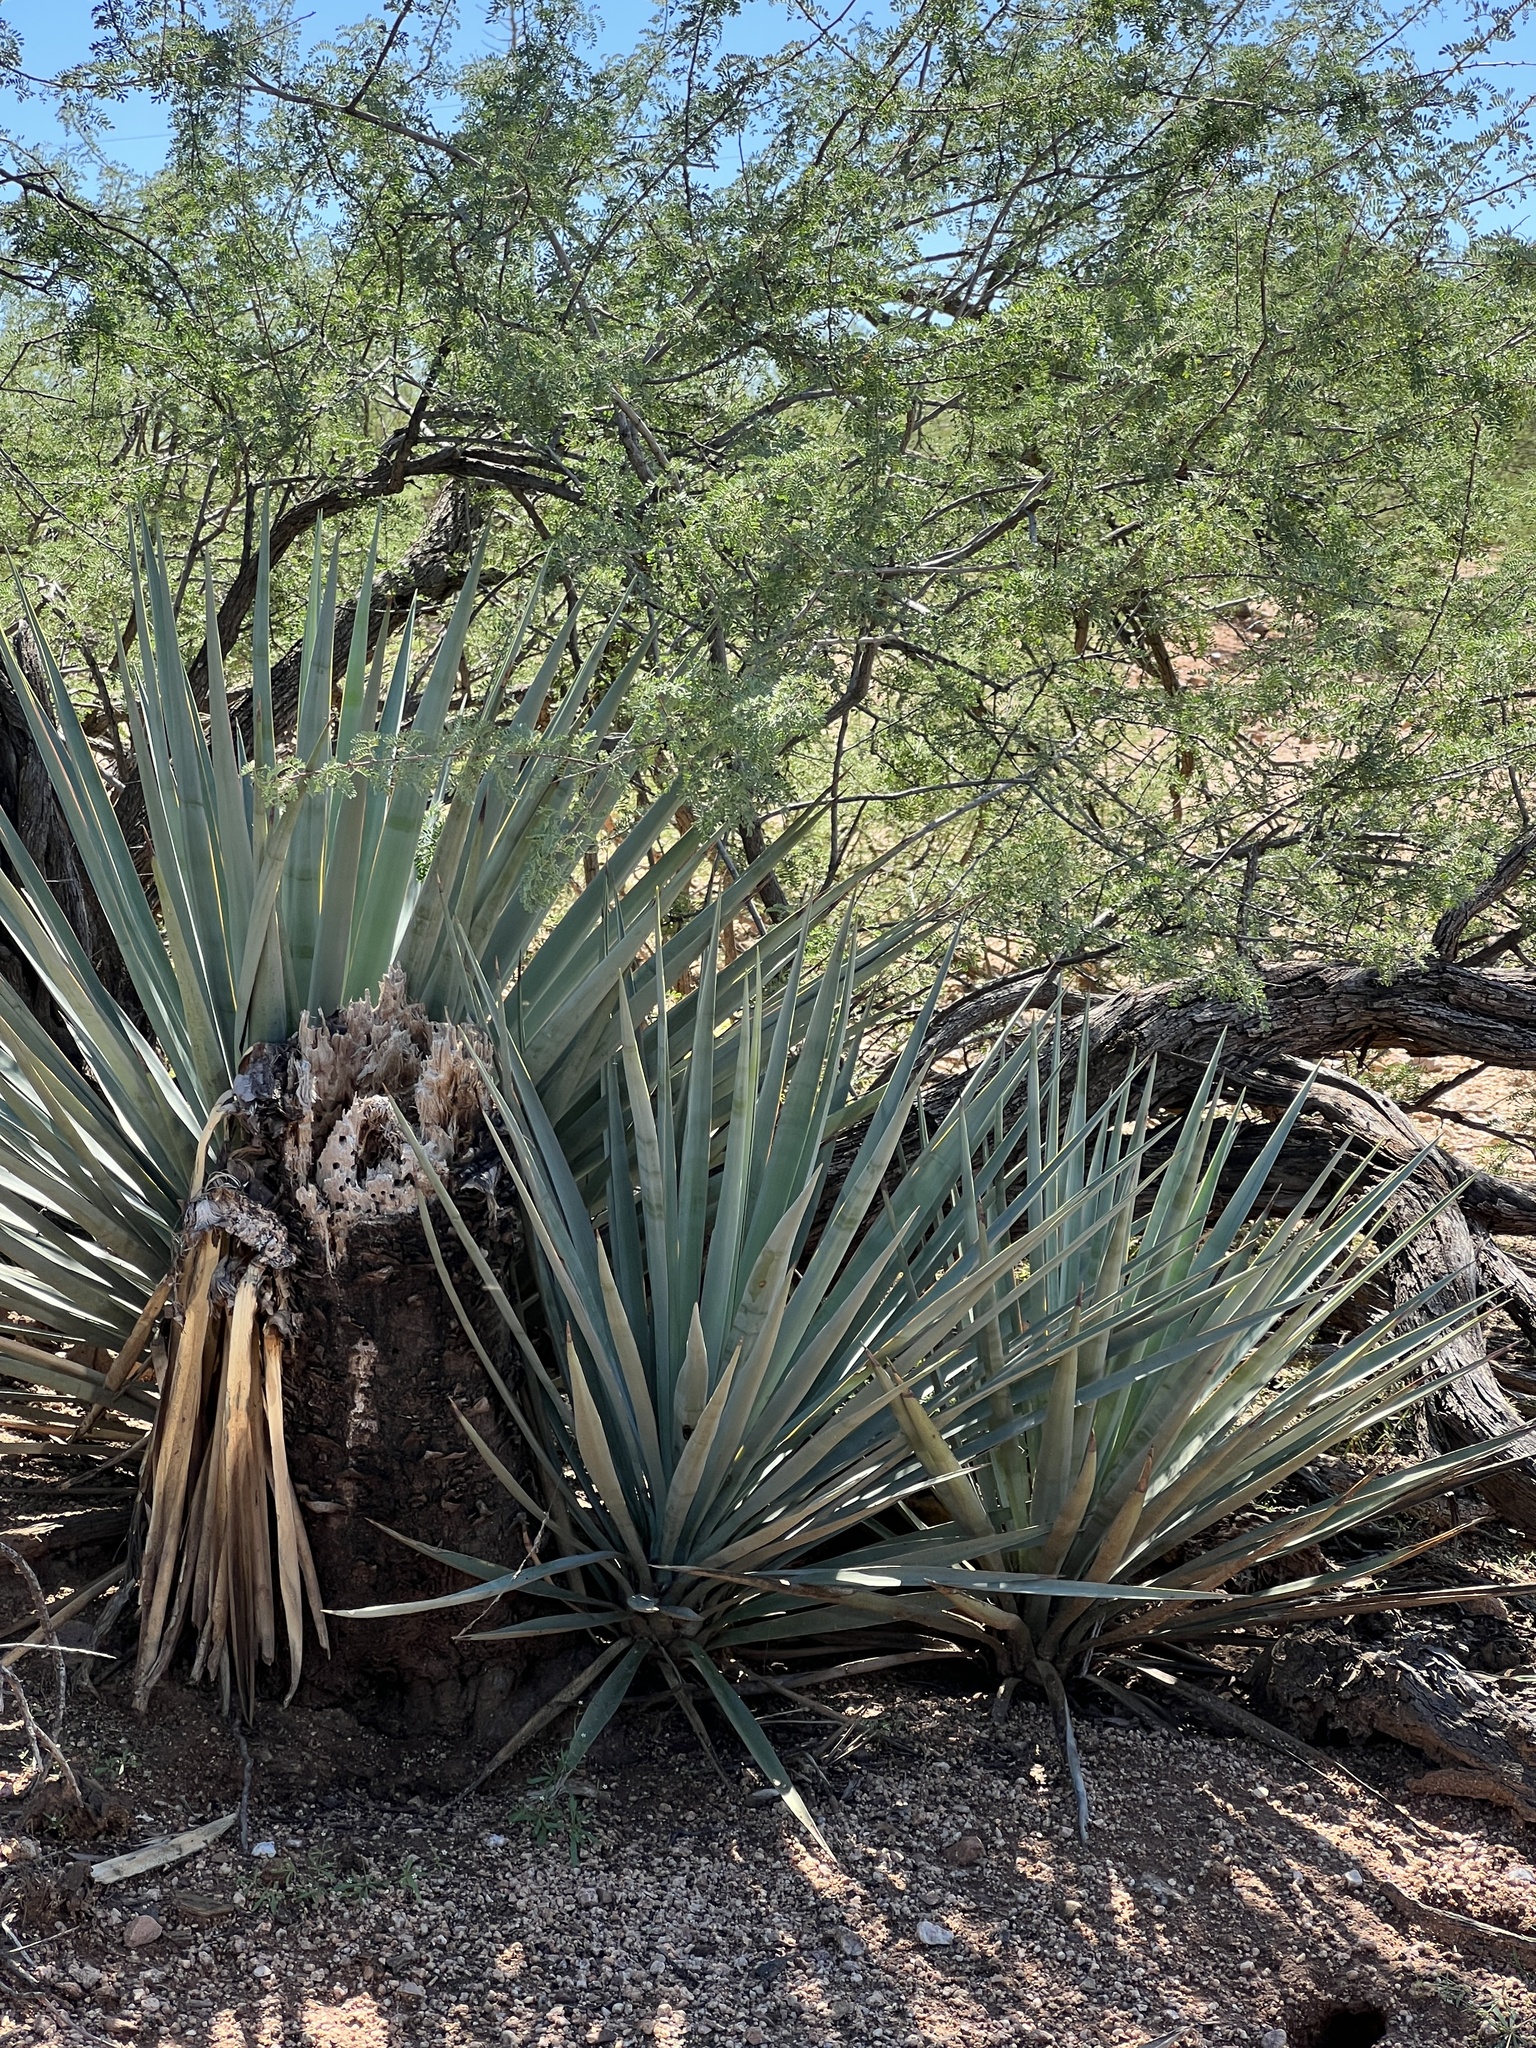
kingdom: Plantae
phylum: Tracheophyta
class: Liliopsida
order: Asparagales
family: Asparagaceae
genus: Yucca
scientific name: Yucca schottii
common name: Hoary yucca
